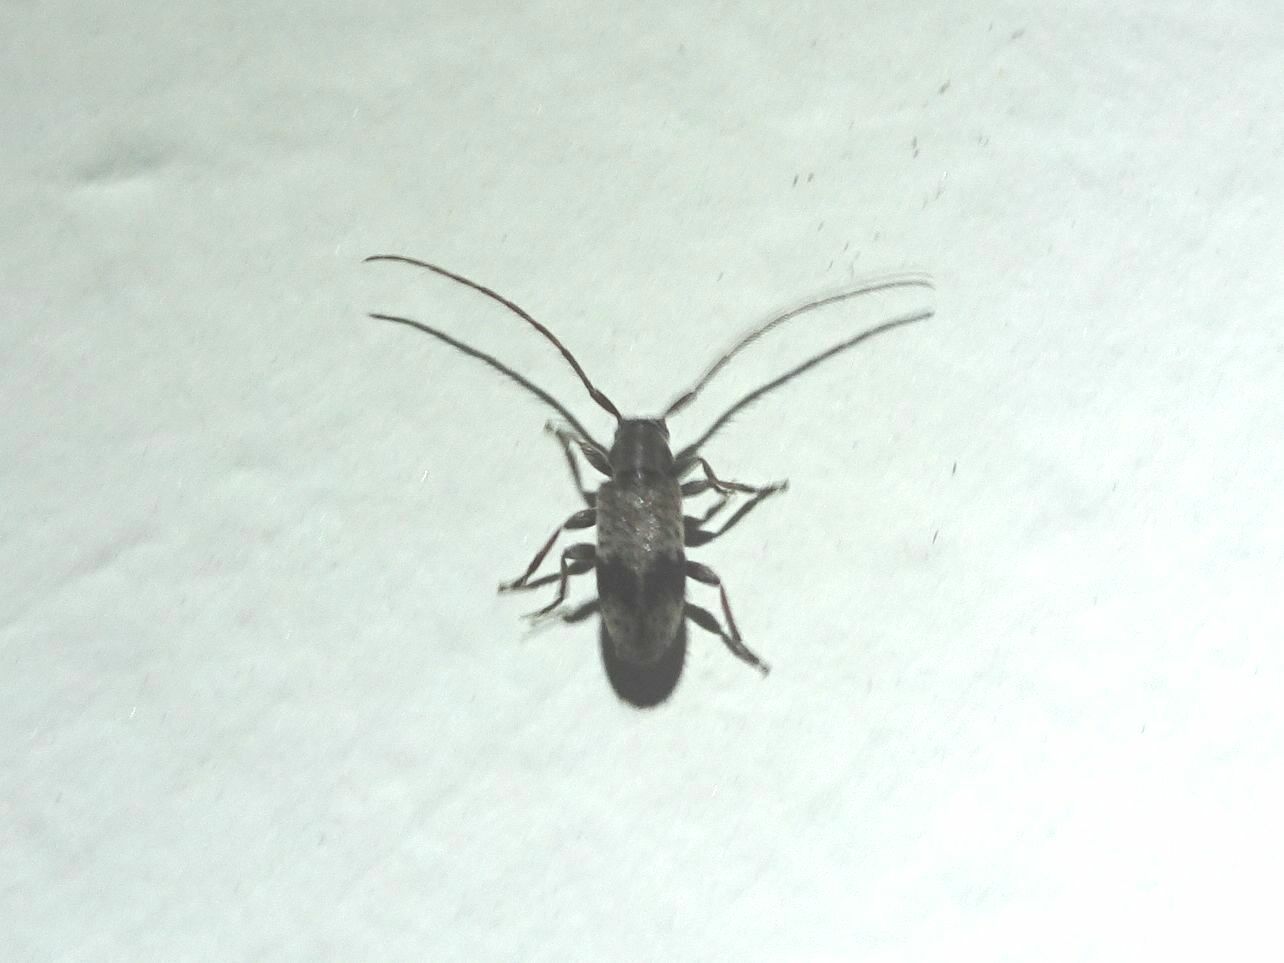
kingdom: Animalia
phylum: Arthropoda
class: Insecta
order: Coleoptera
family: Cerambycidae
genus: Exocentrus
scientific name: Exocentrus punctipennis
